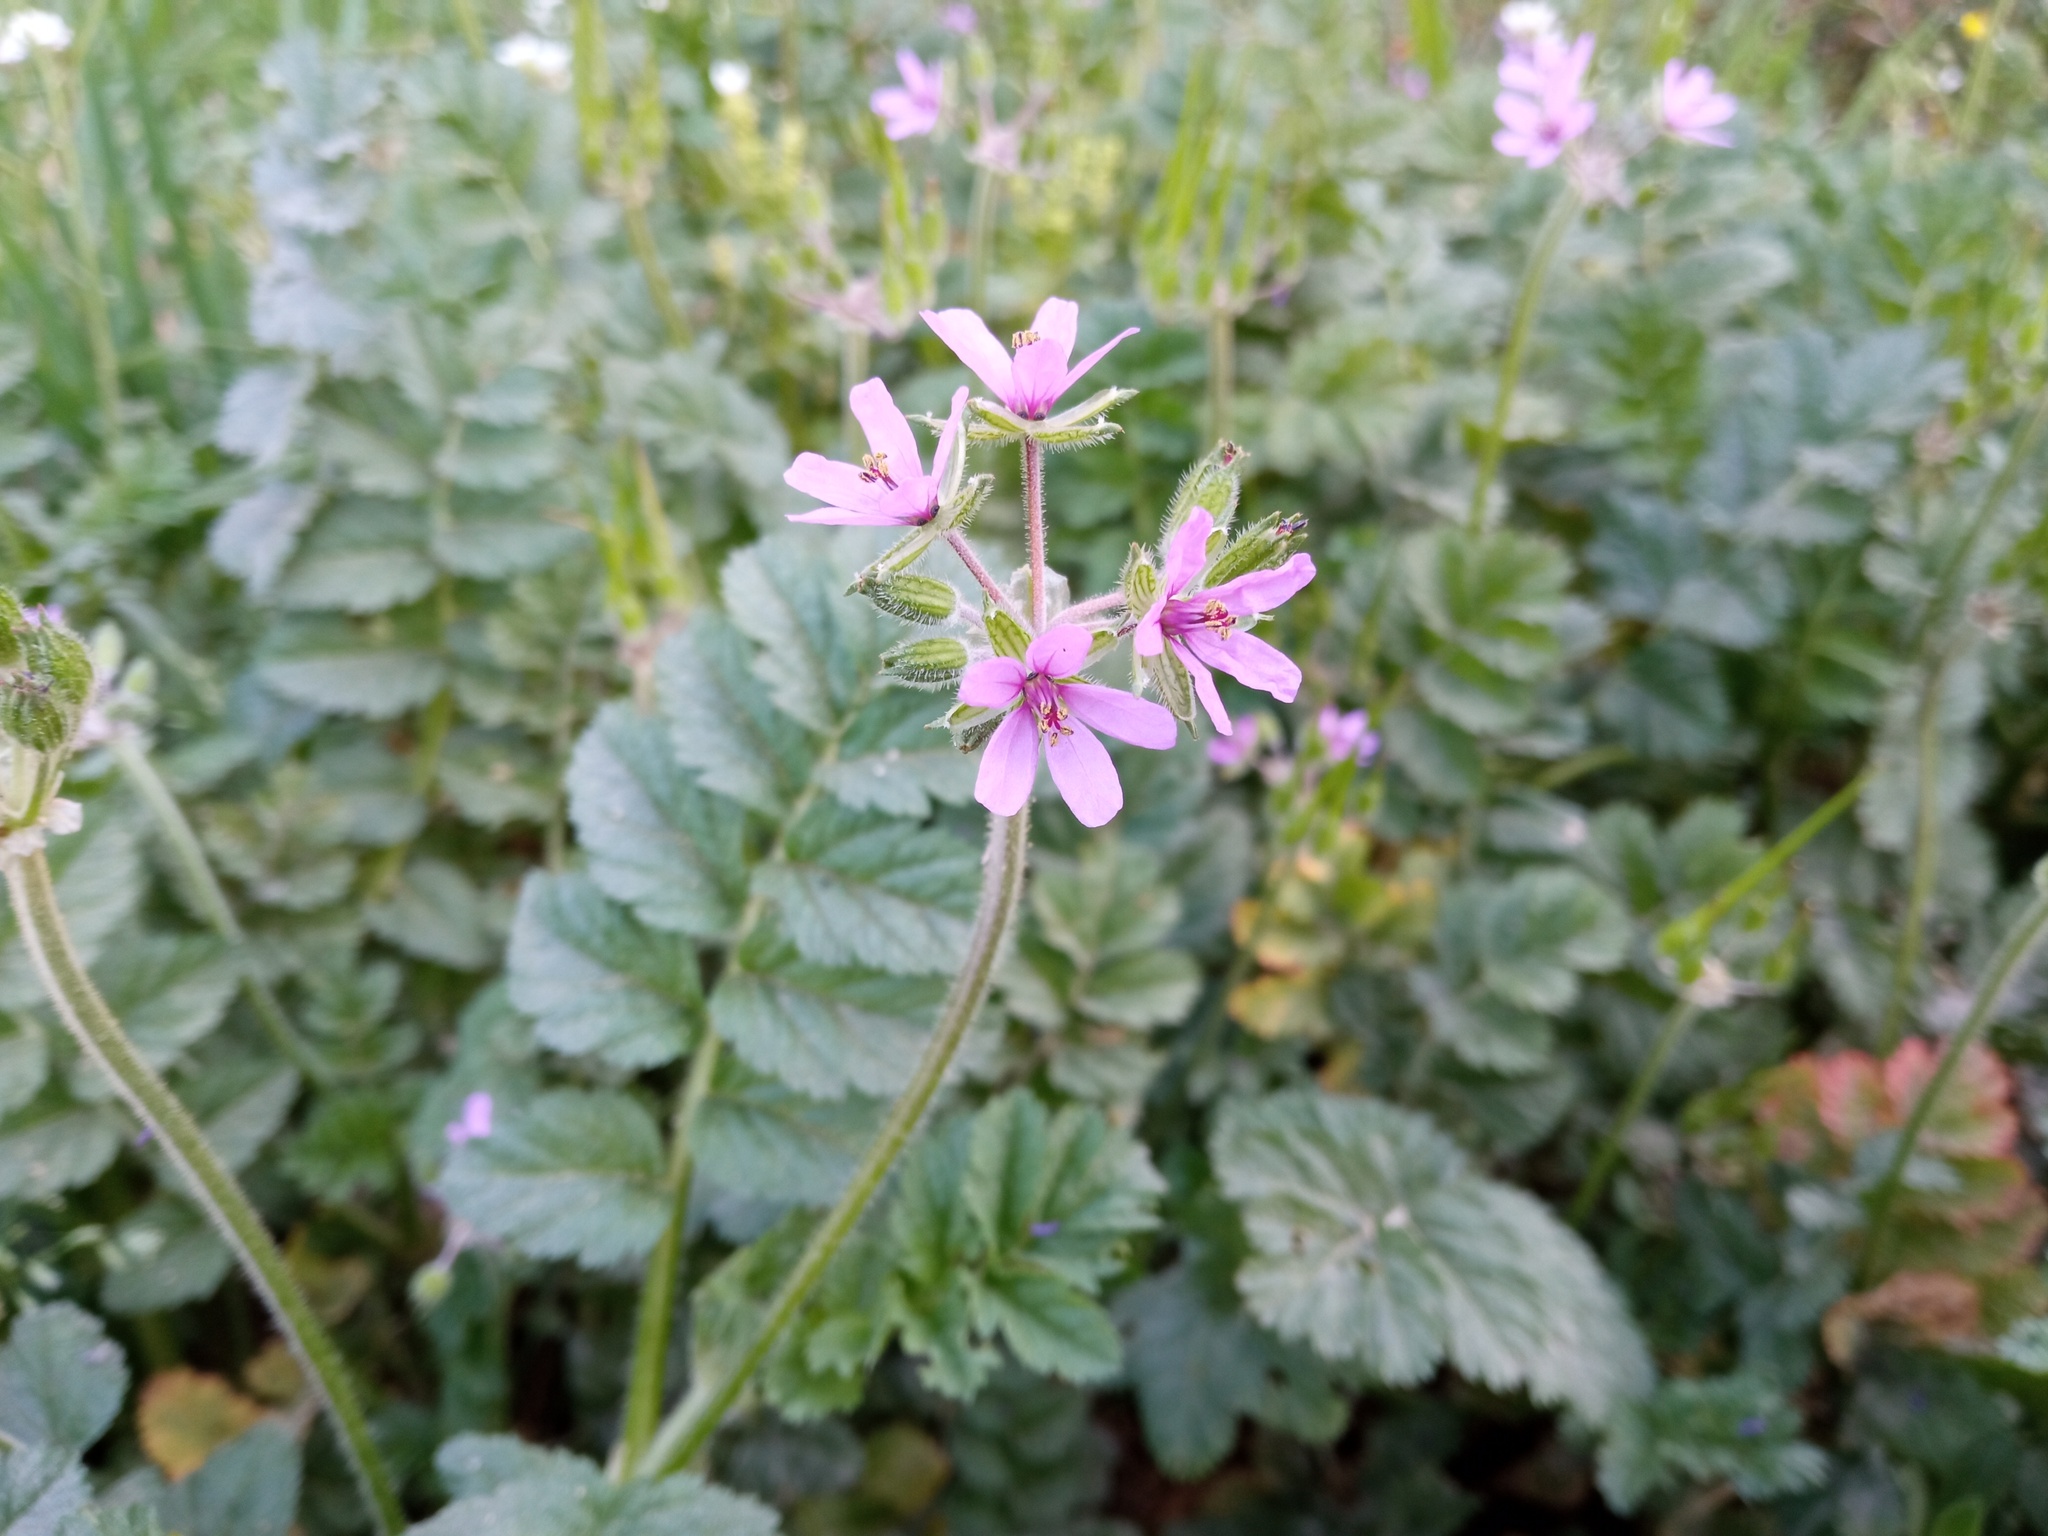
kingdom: Plantae
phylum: Tracheophyta
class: Magnoliopsida
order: Geraniales
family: Geraniaceae
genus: Erodium
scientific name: Erodium moschatum
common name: Musk stork's-bill
